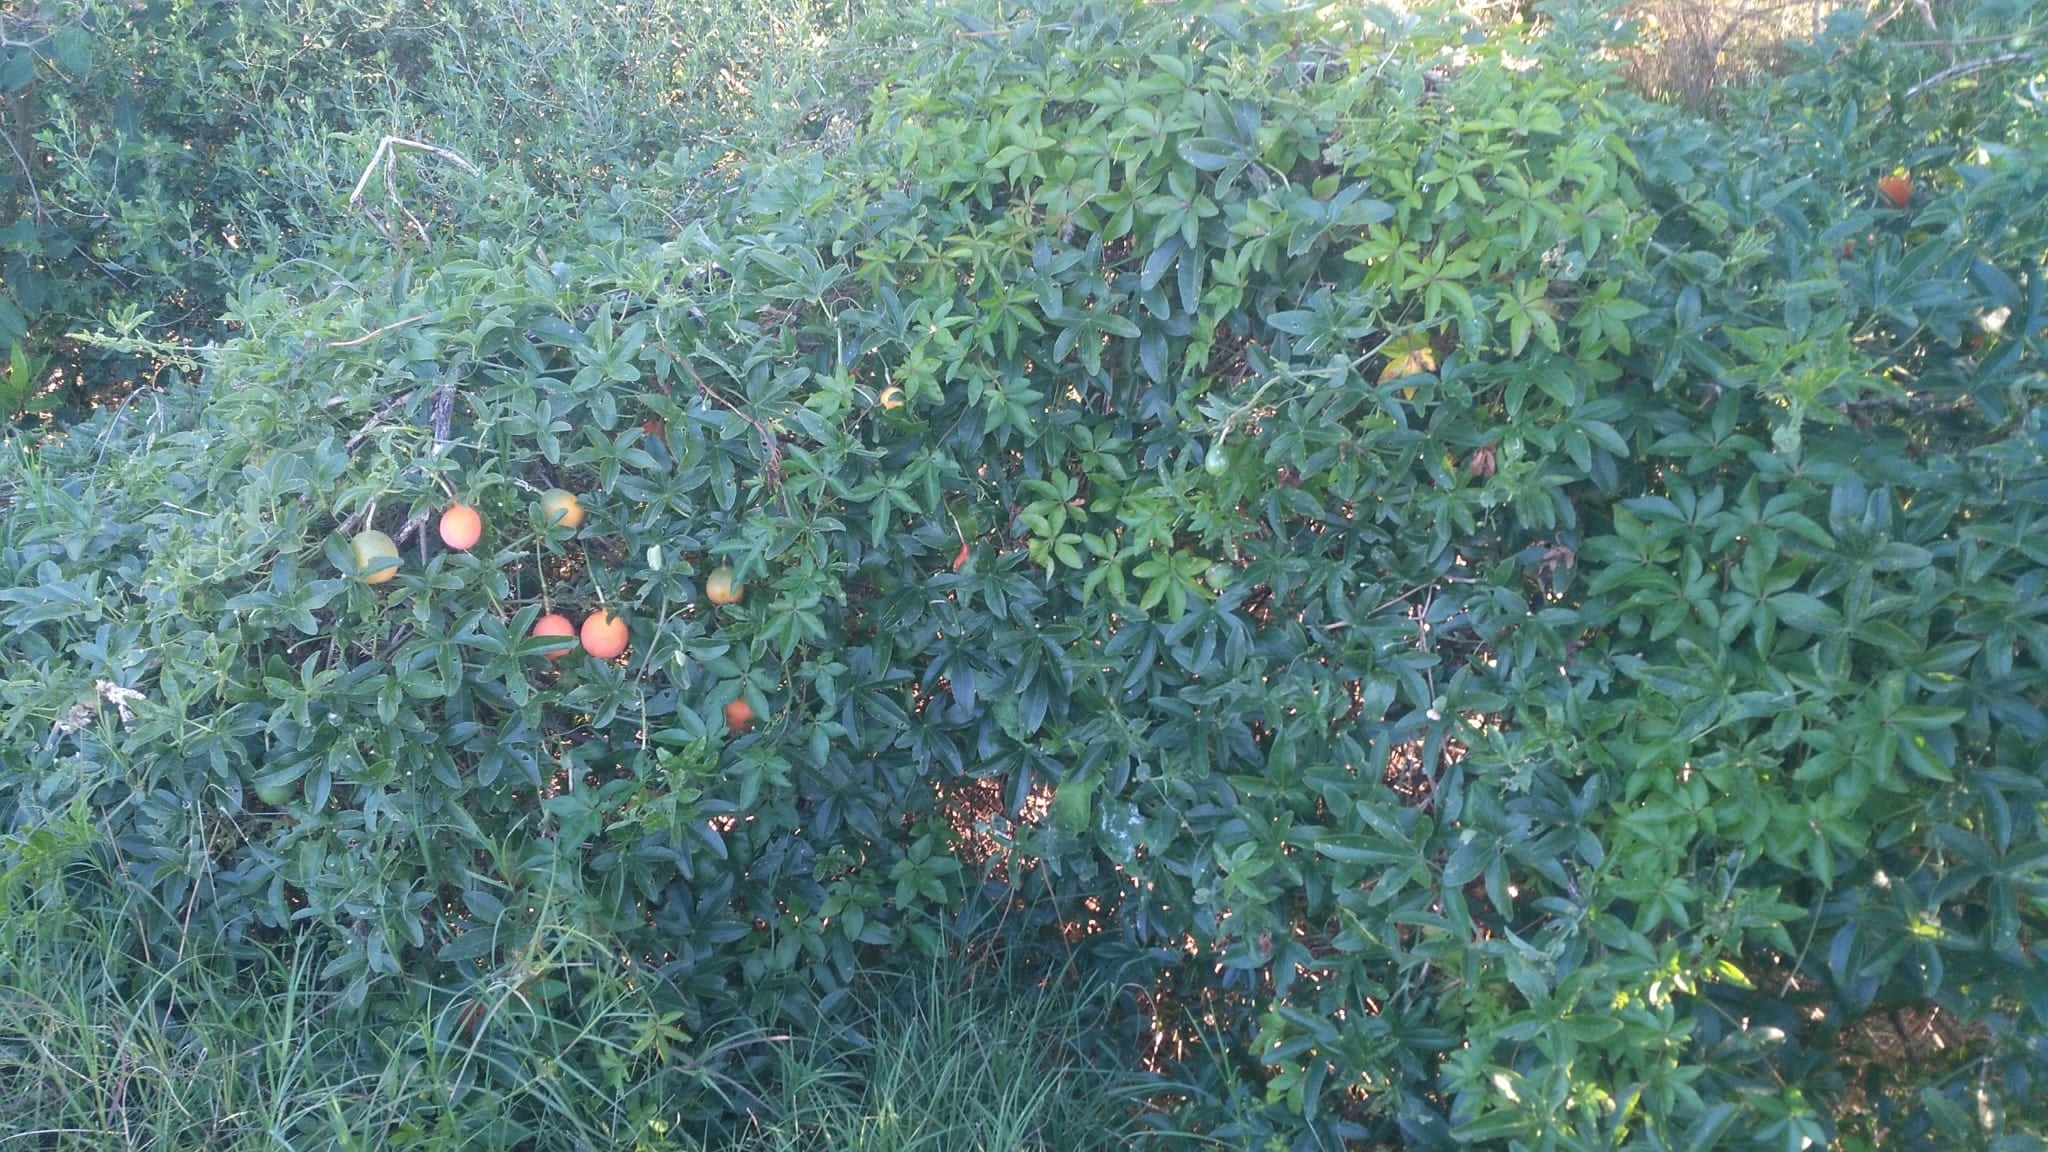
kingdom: Plantae
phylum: Tracheophyta
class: Magnoliopsida
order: Malpighiales
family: Passifloraceae
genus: Passiflora
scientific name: Passiflora caerulea
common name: Blue passionflower
